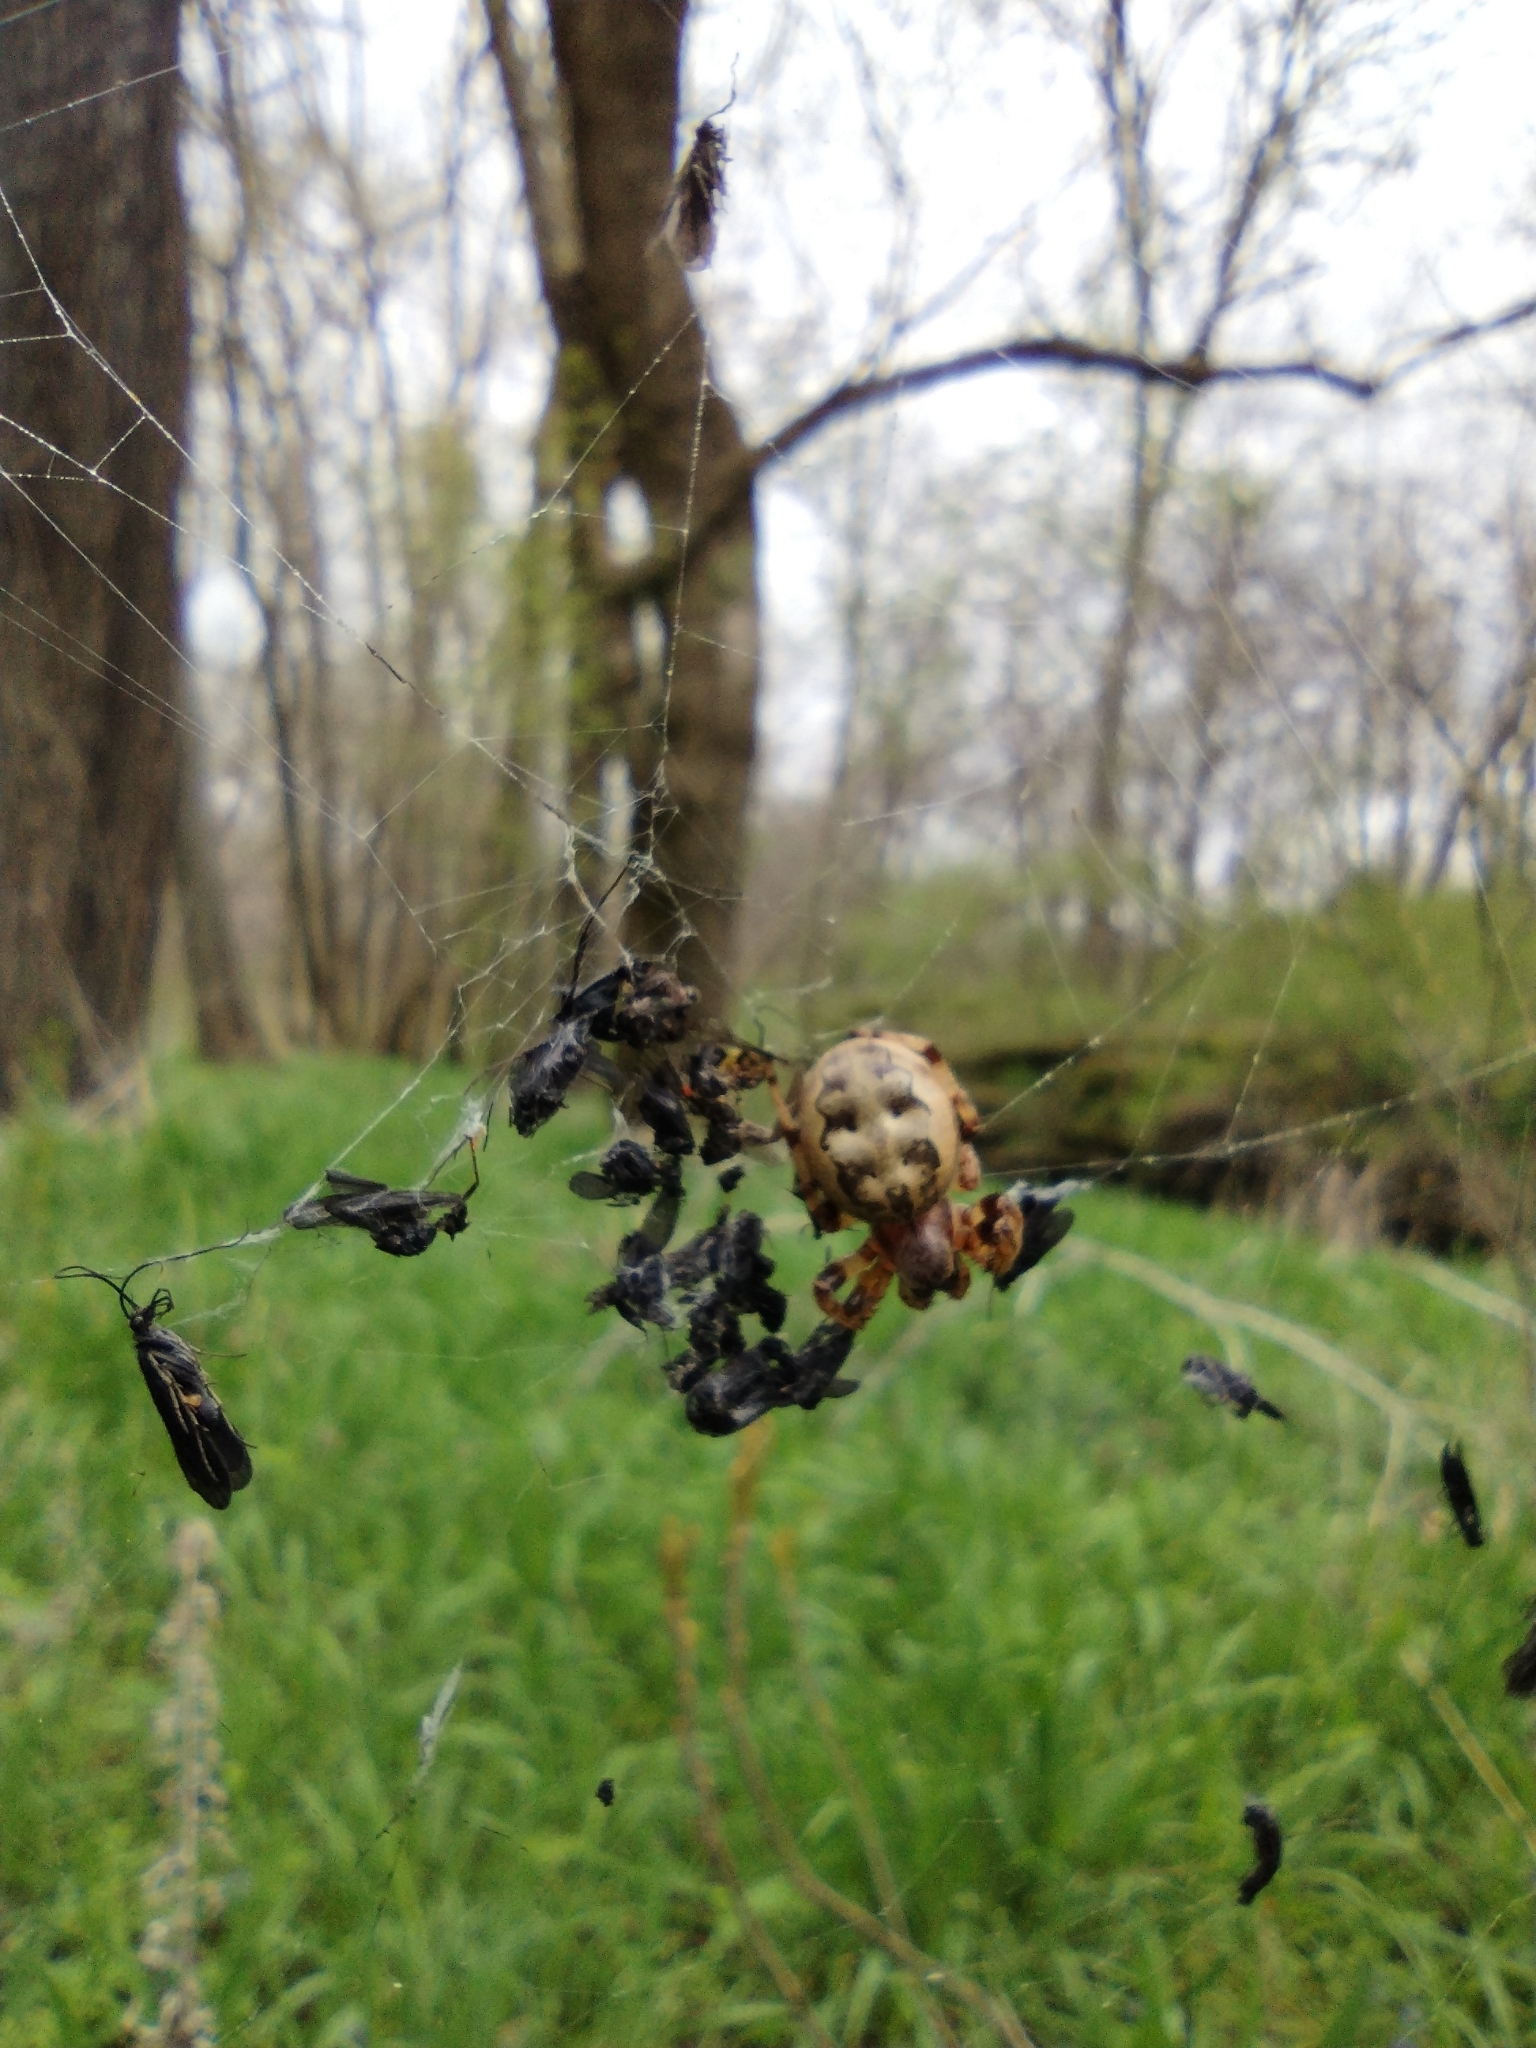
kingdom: Animalia
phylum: Arthropoda
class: Arachnida
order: Araneae
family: Araneidae
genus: Larinioides
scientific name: Larinioides cornutus
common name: Furrow orbweaver
